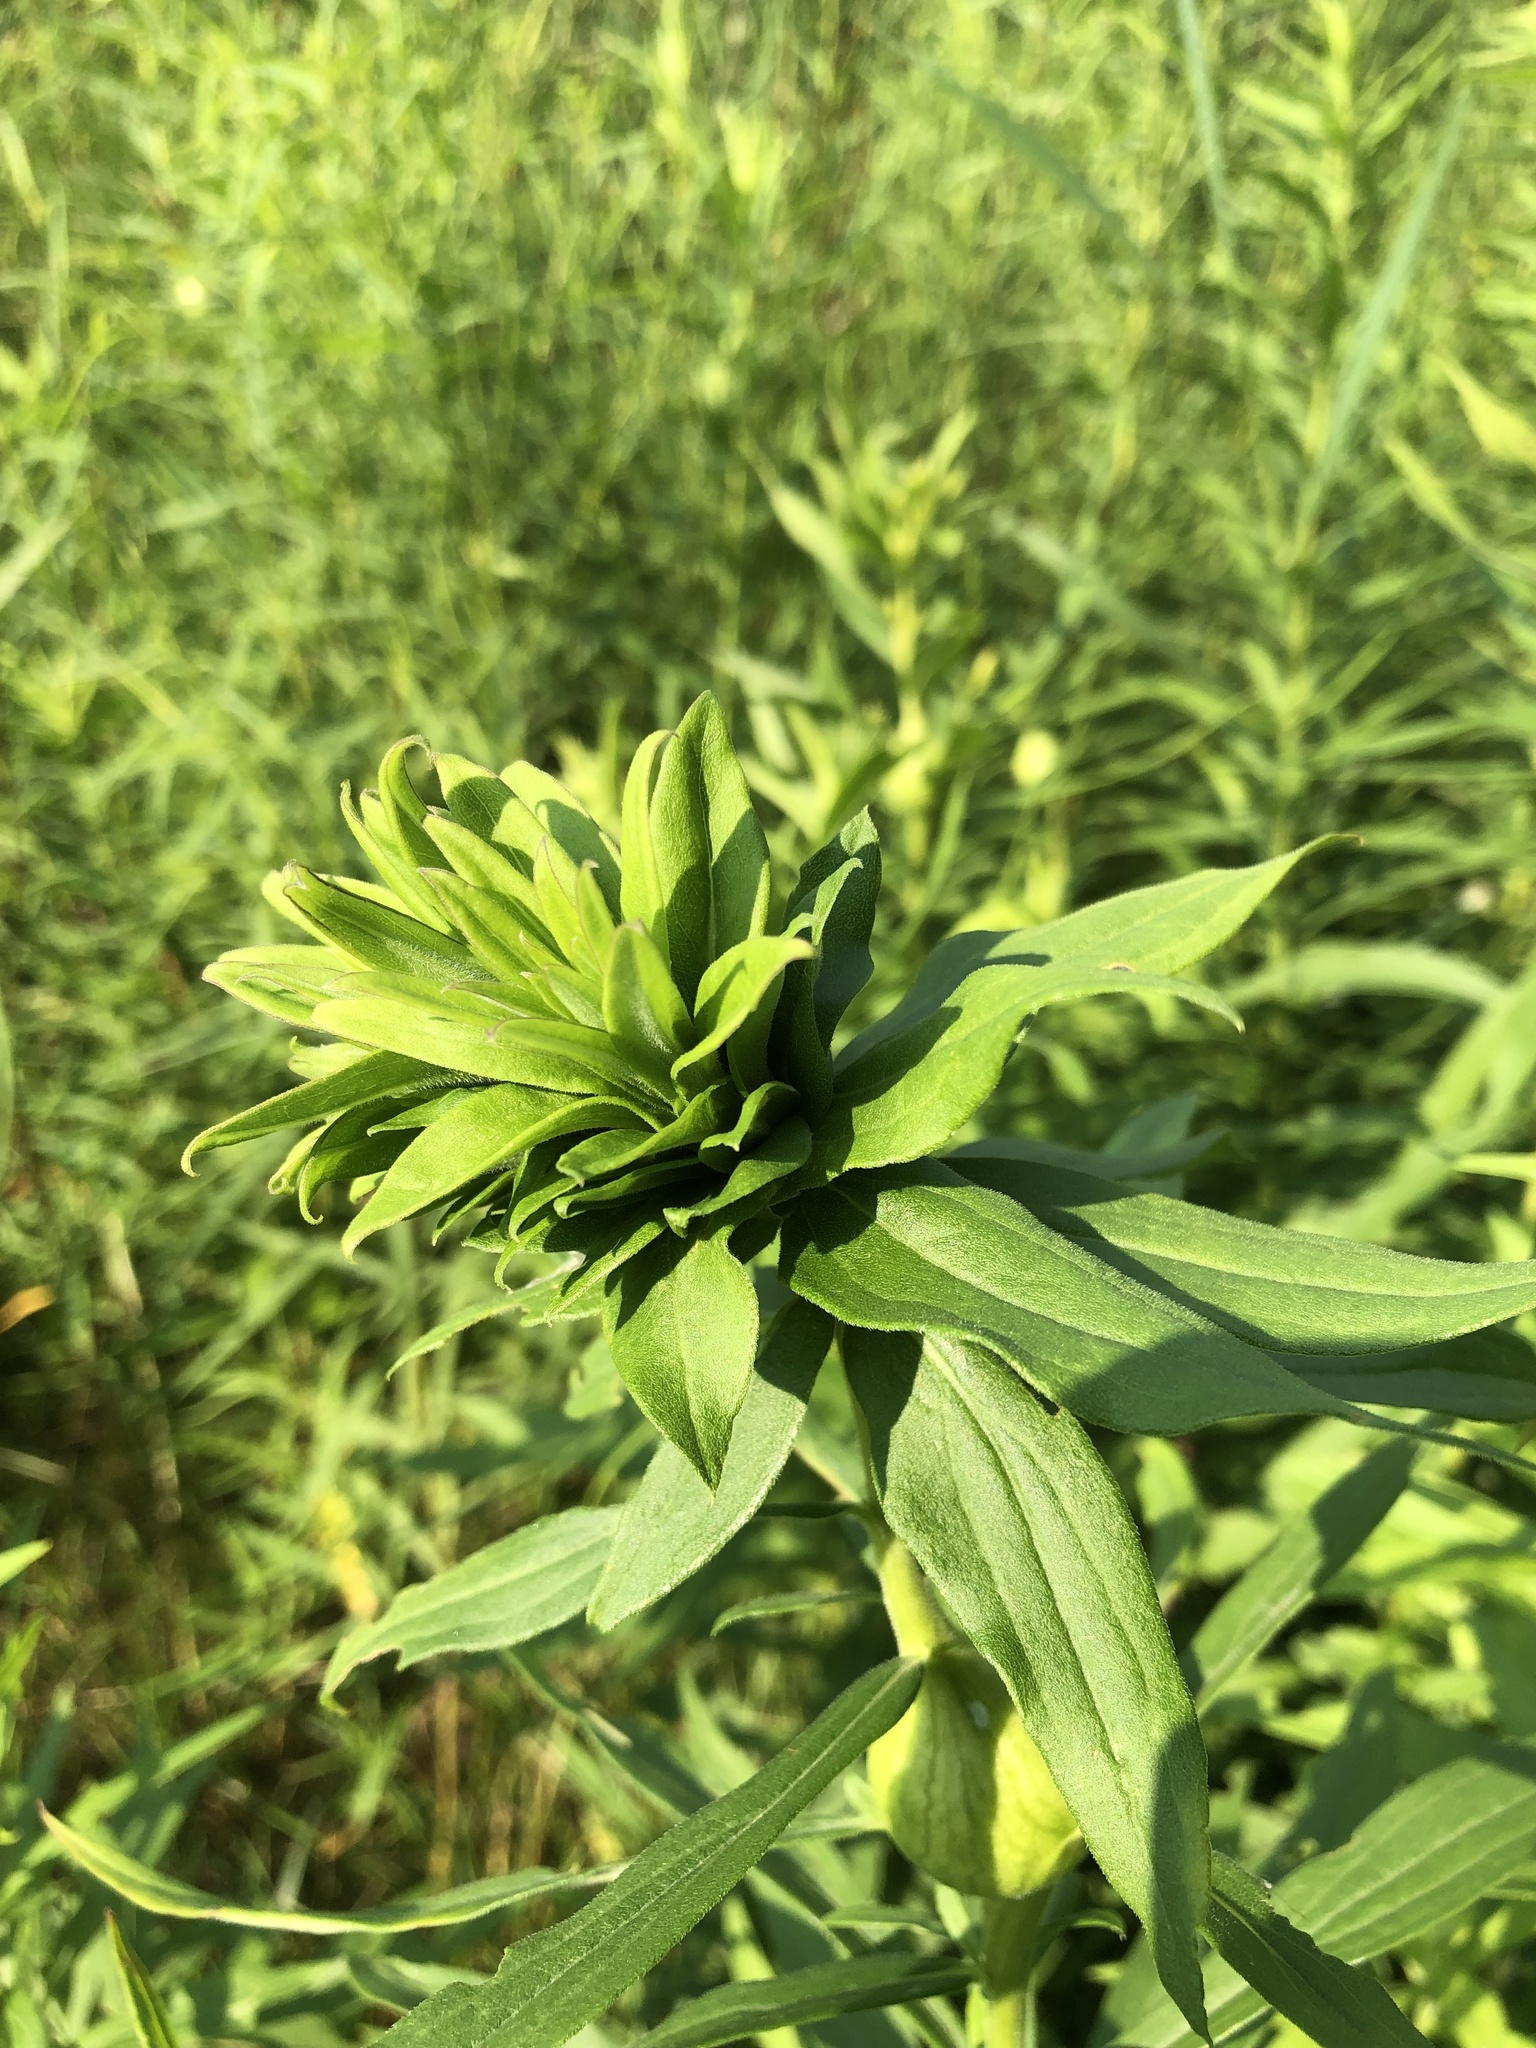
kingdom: Animalia
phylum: Arthropoda
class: Insecta
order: Diptera
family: Cecidomyiidae
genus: Rhopalomyia
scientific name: Rhopalomyia solidaginis
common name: Goldenrod bunch gall midge
